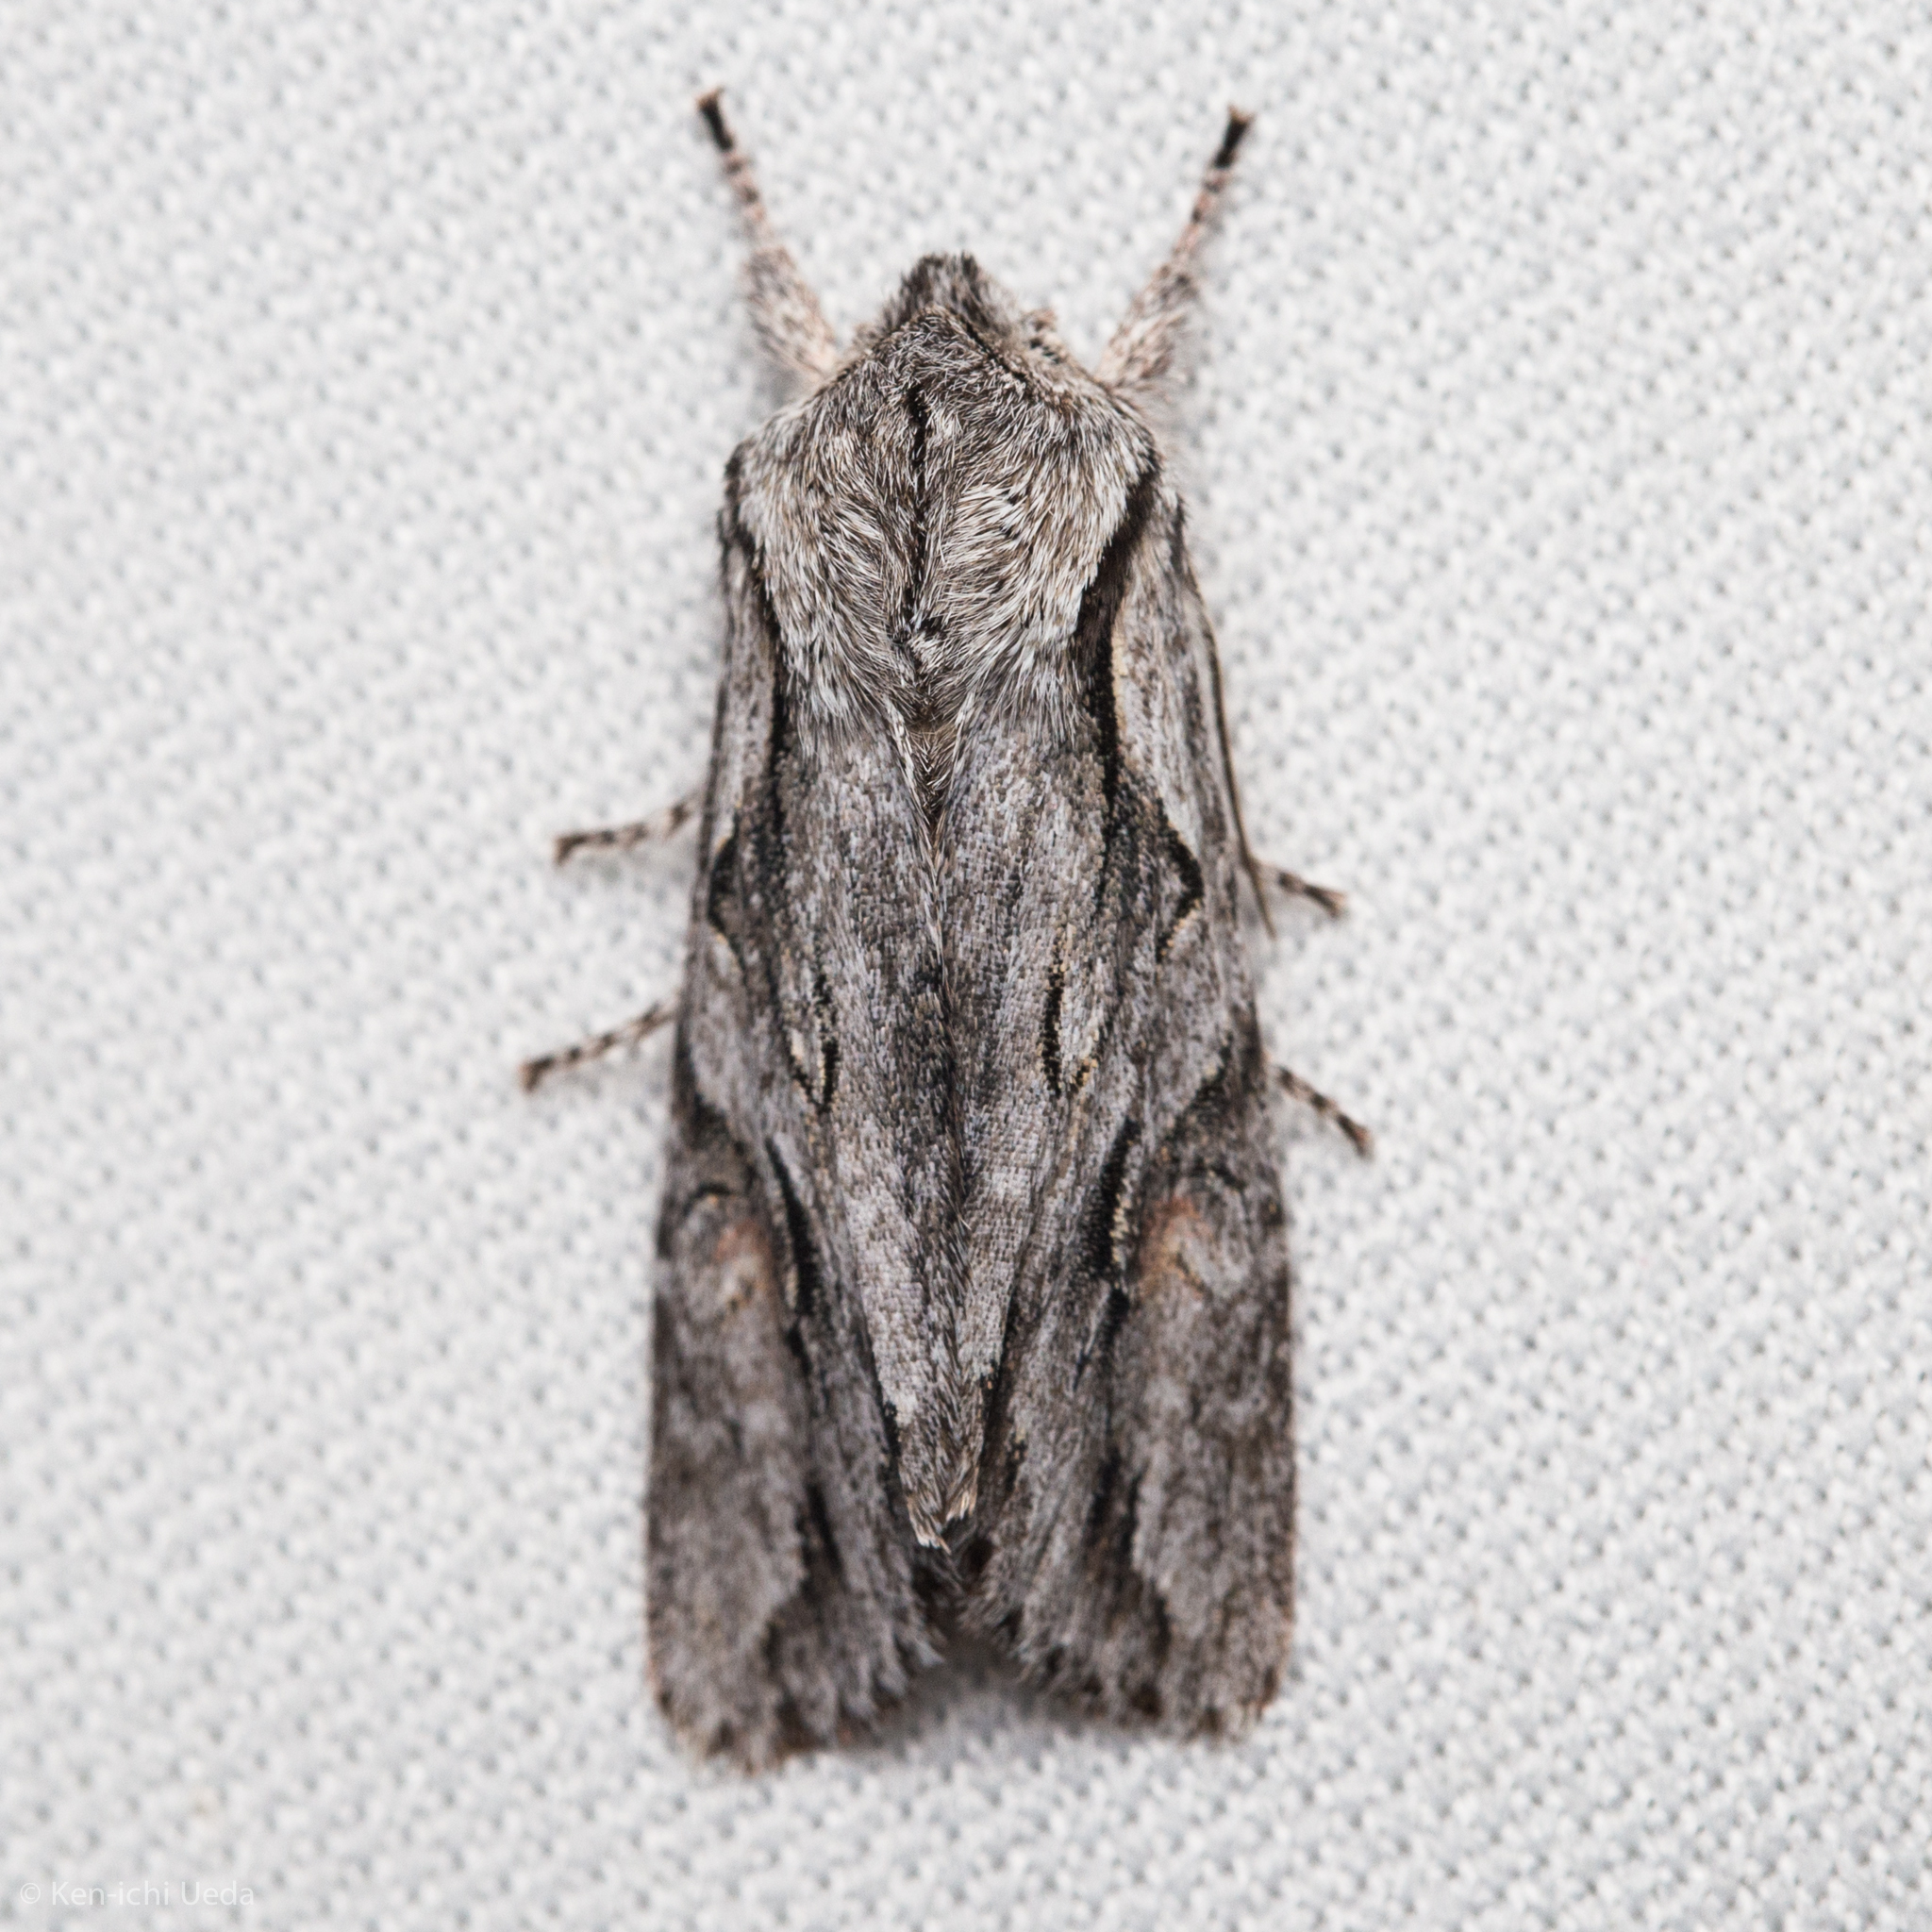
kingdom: Animalia
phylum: Arthropoda
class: Insecta
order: Lepidoptera
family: Noctuidae
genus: Egira
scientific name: Egira crucialis
